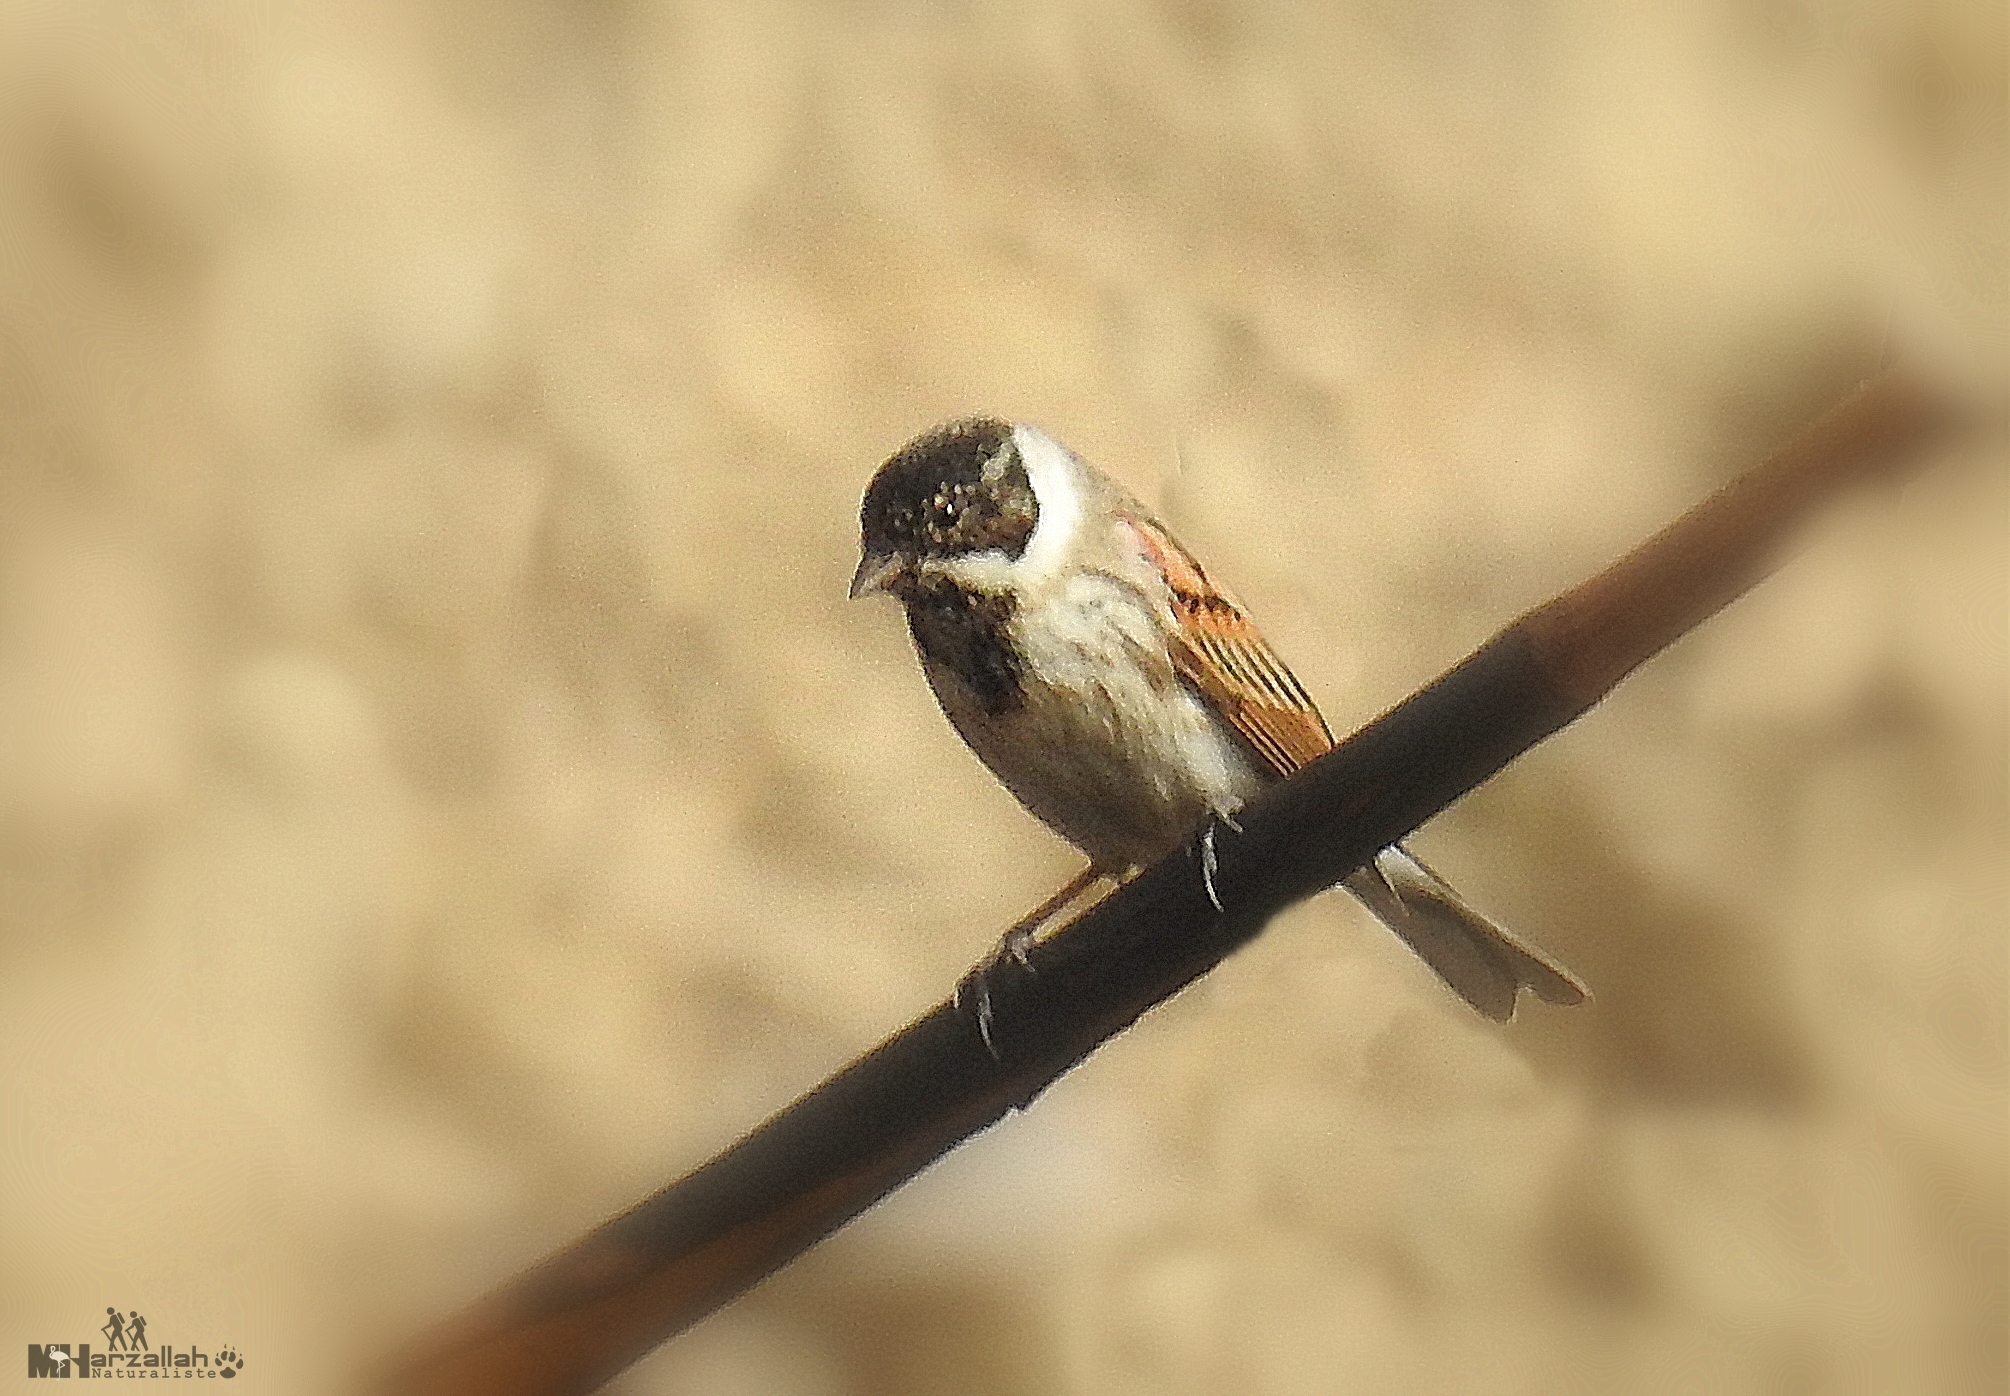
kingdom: Animalia
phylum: Chordata
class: Aves
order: Passeriformes
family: Emberizidae
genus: Emberiza
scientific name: Emberiza schoeniclus
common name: Reed bunting
